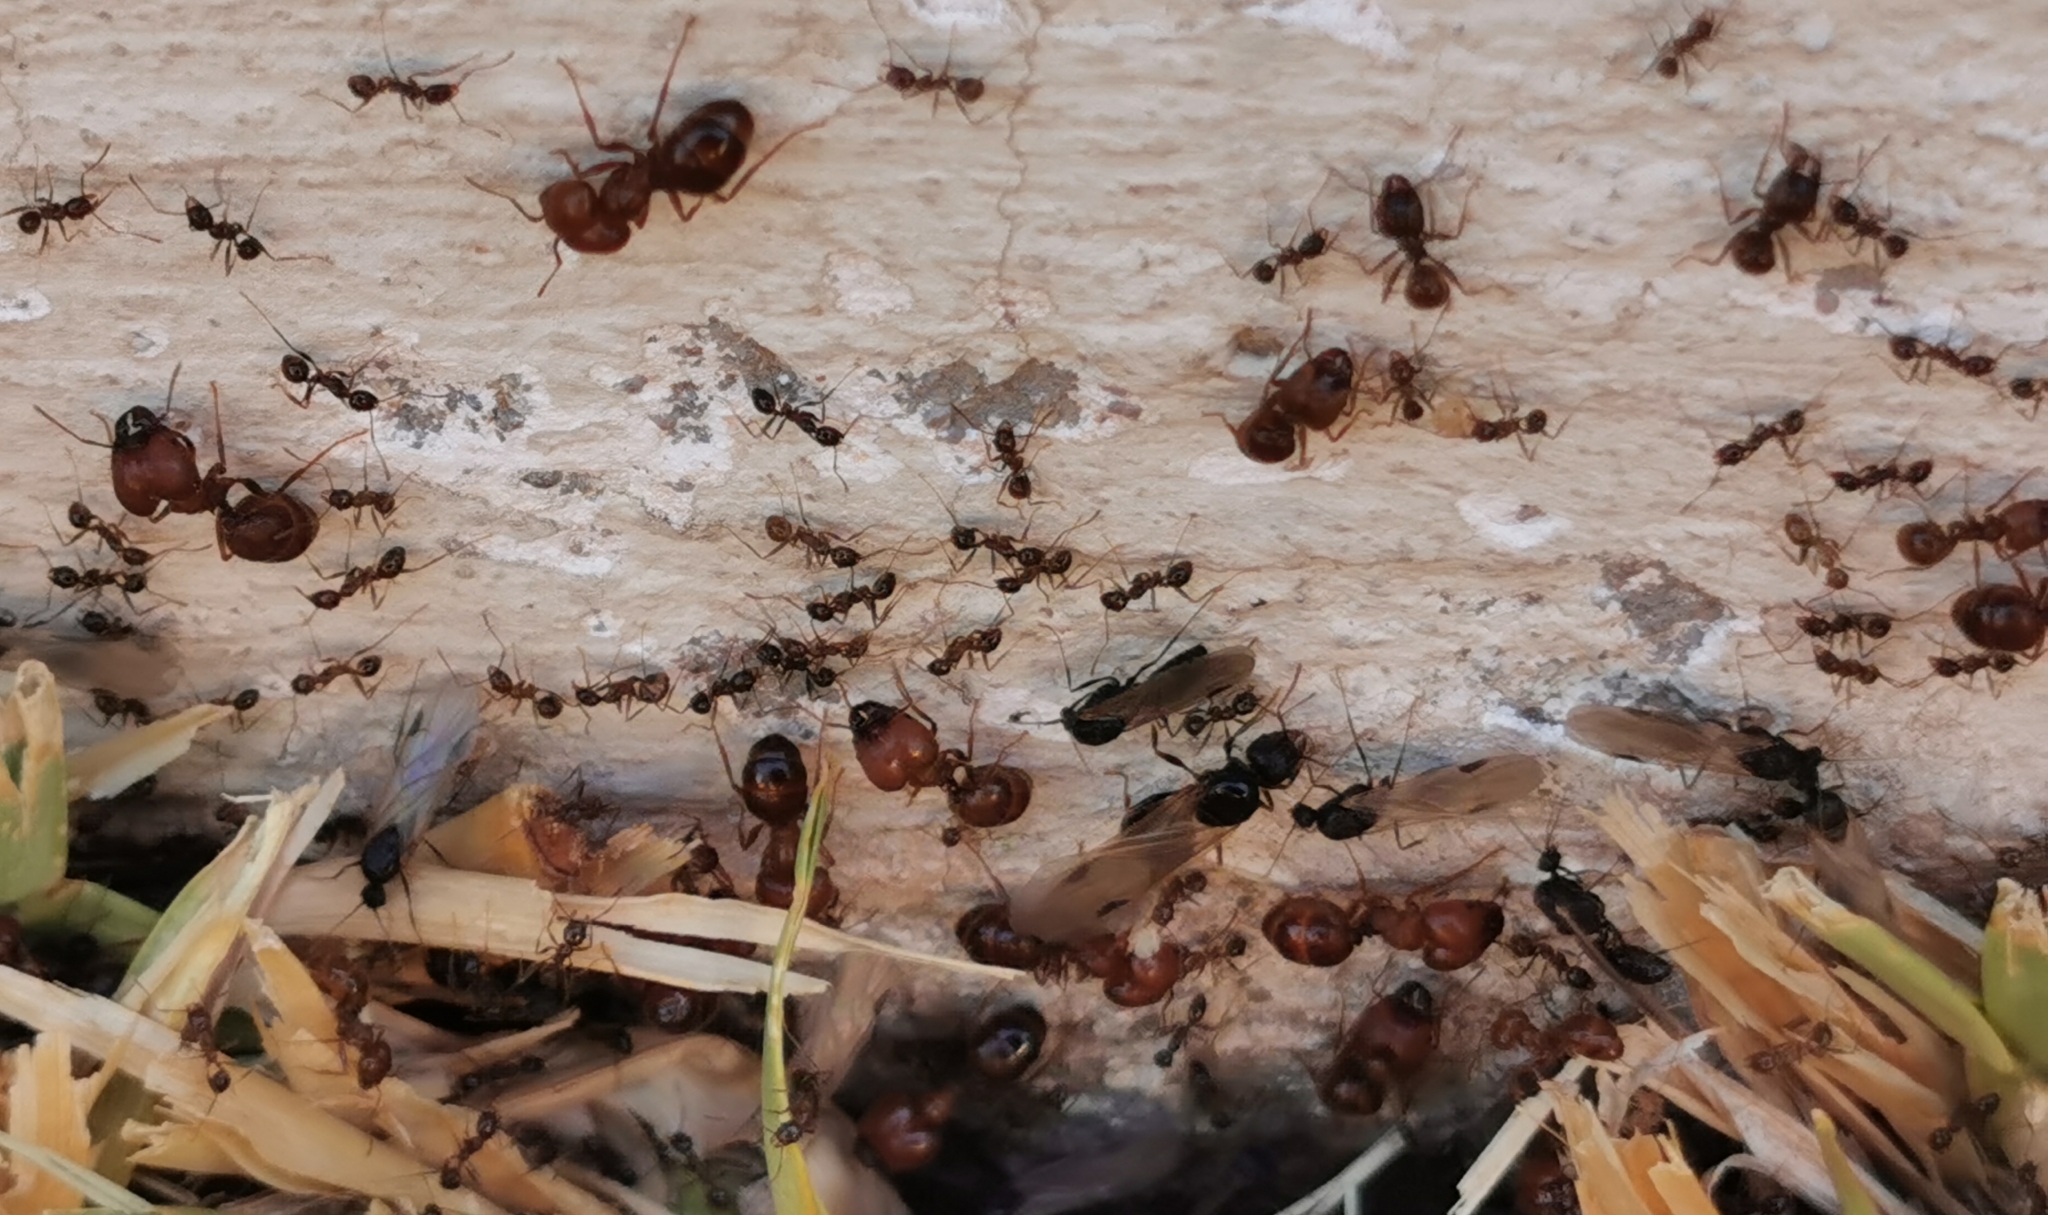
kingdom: Animalia
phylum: Arthropoda
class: Insecta
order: Hymenoptera
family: Formicidae
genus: Pheidole
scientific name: Pheidole obtusospinosa
